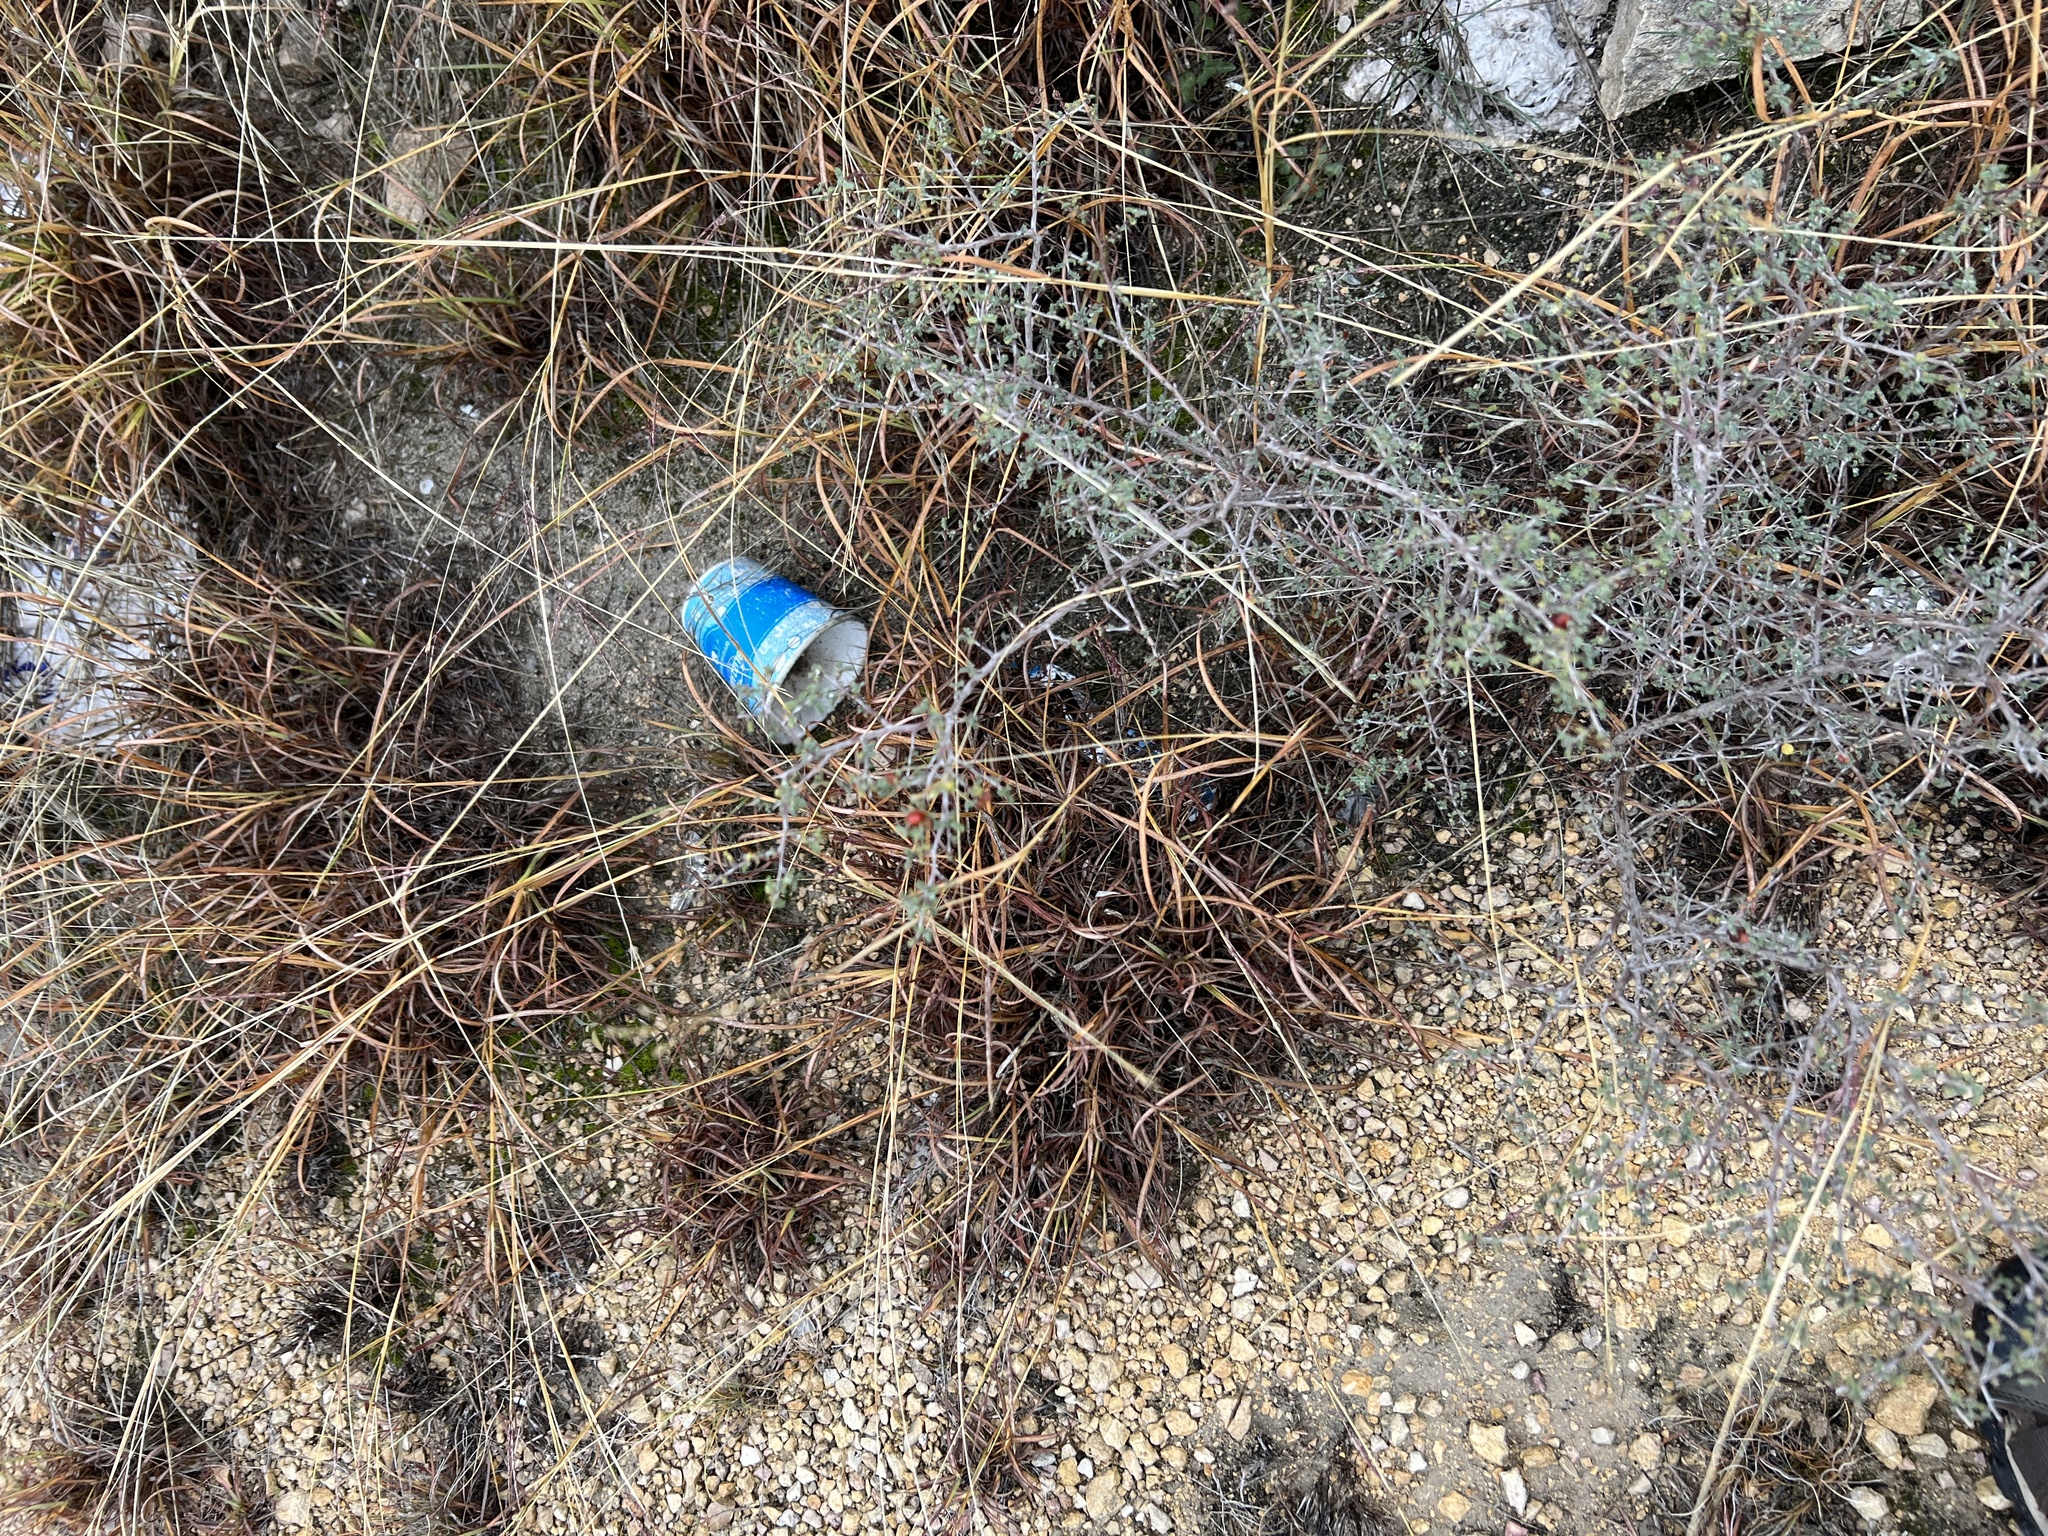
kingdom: Plantae
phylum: Tracheophyta
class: Magnoliopsida
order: Fabales
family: Fabaceae
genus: Dalea
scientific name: Dalea formosa
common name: Feather-plume dalea
